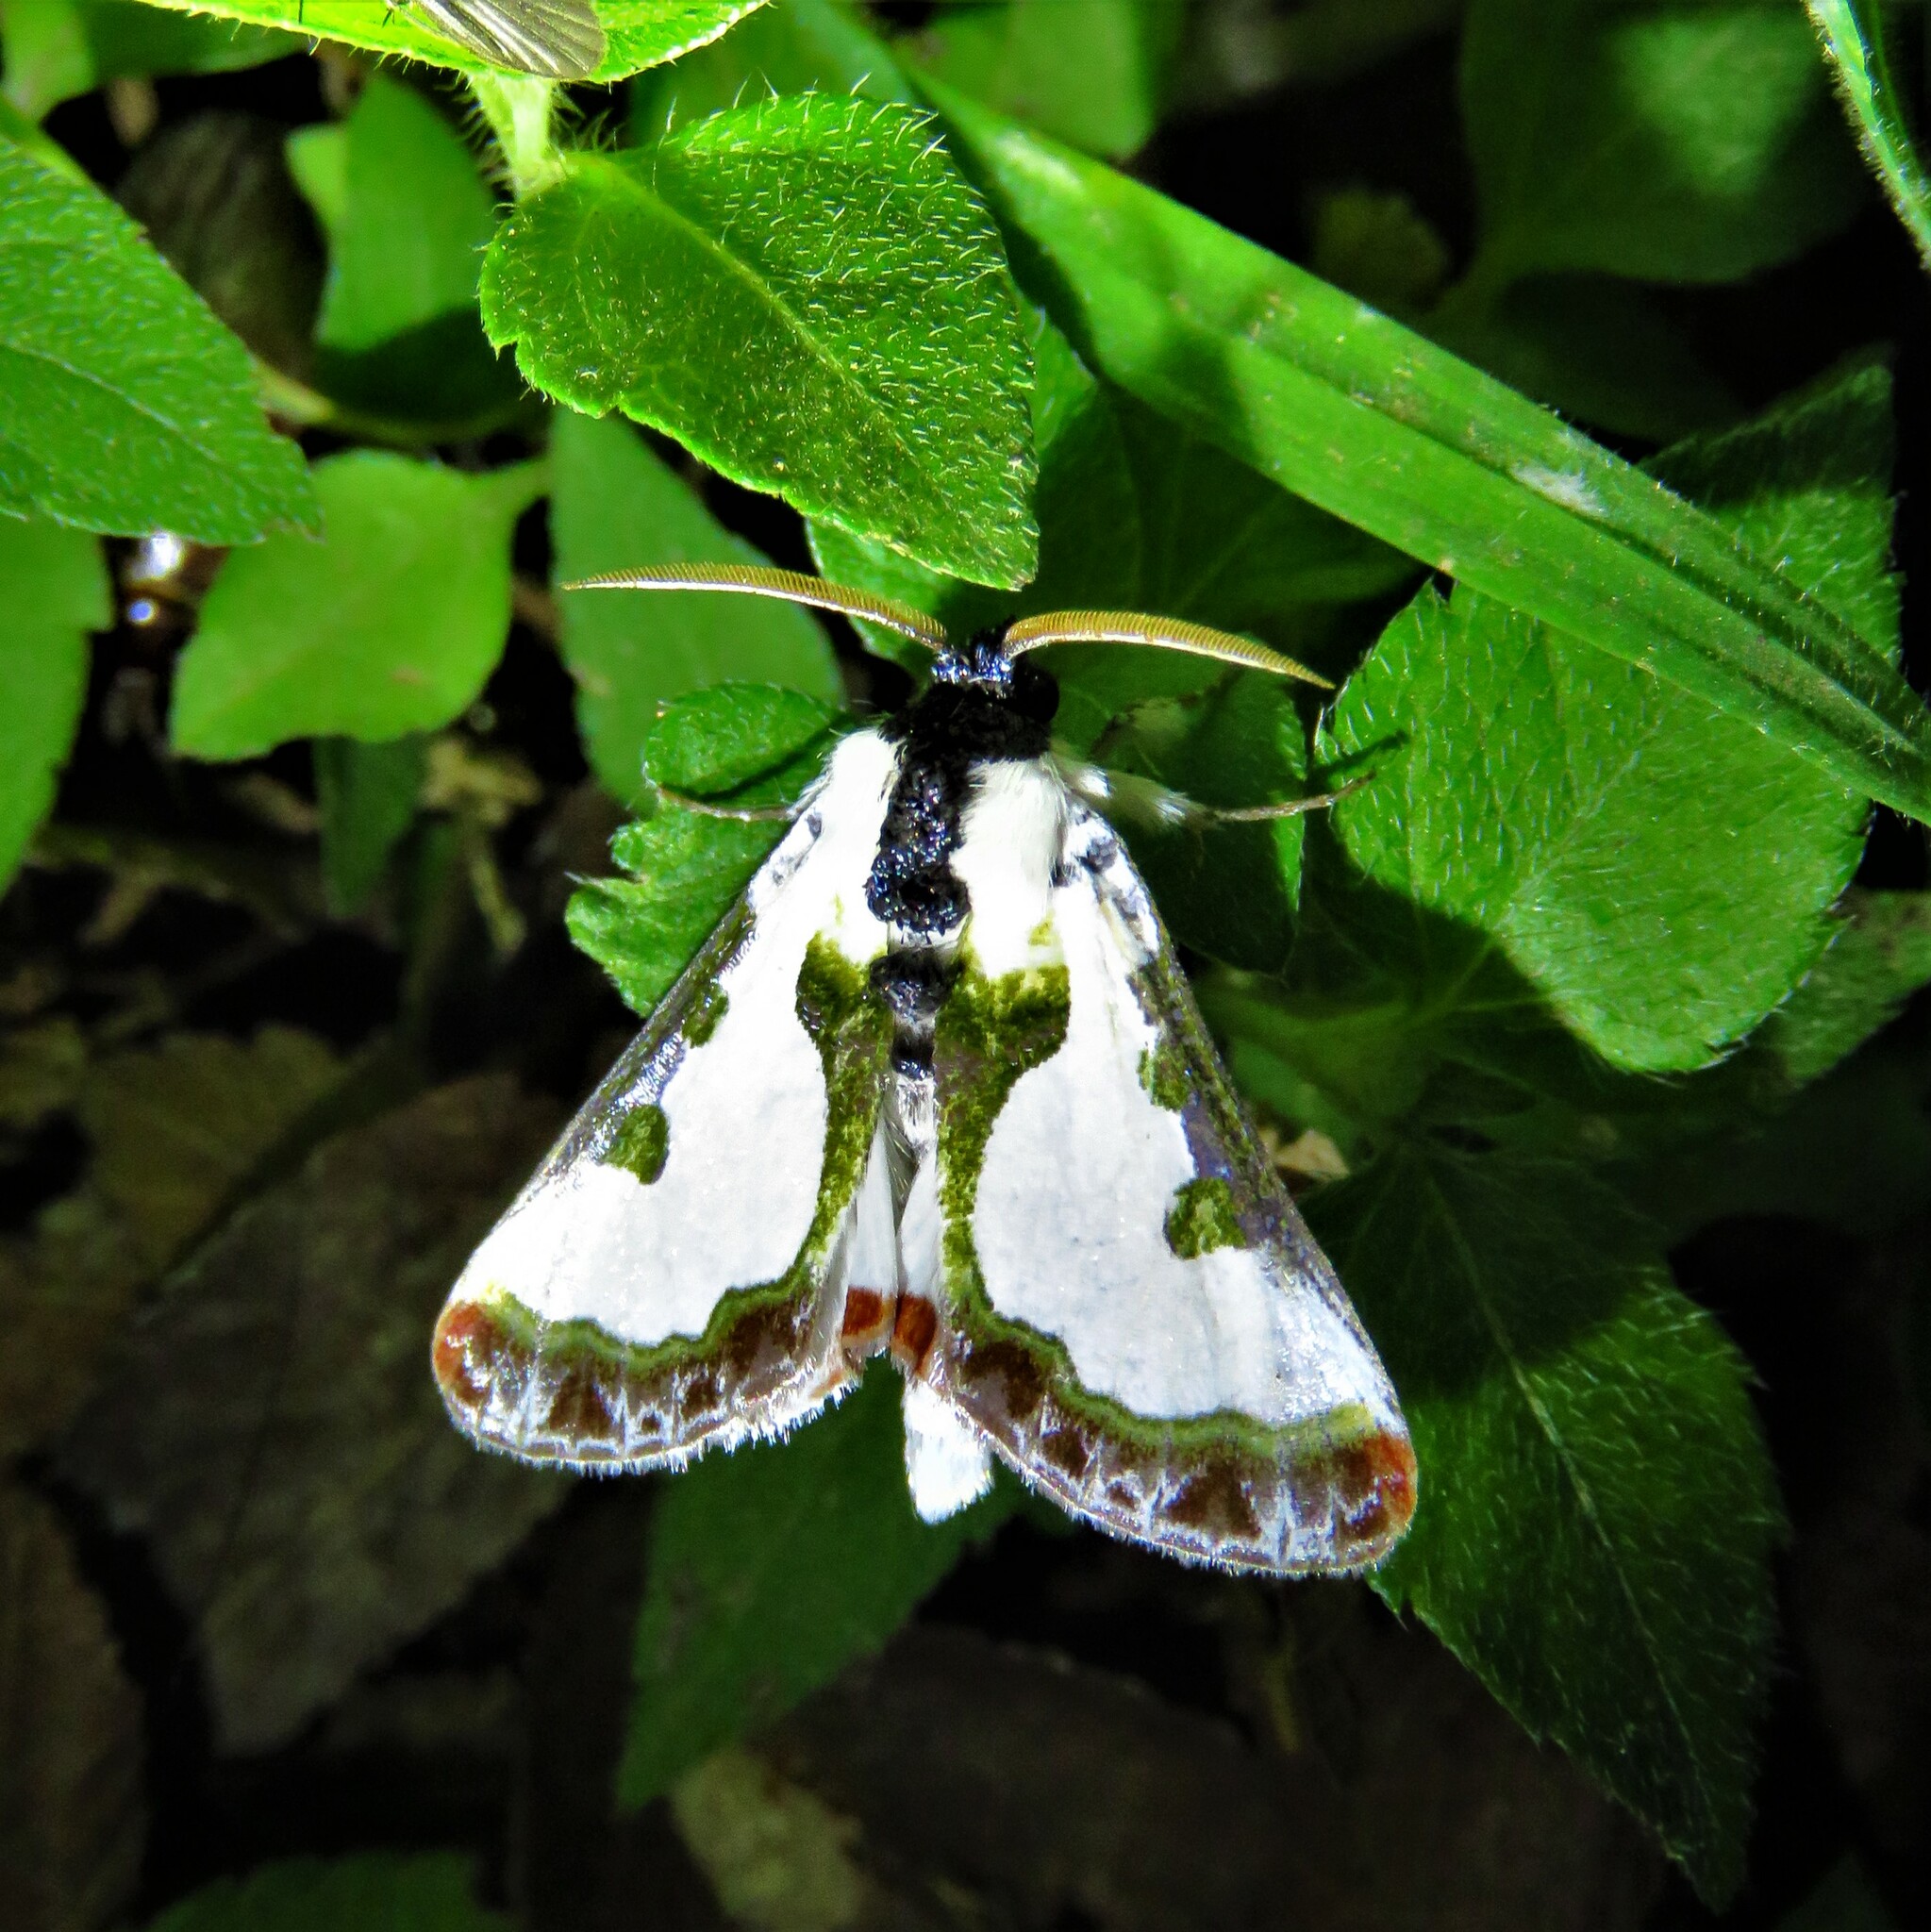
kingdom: Animalia
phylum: Arthropoda
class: Insecta
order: Lepidoptera
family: Noctuidae
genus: Xerociris
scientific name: Xerociris wilsonii
